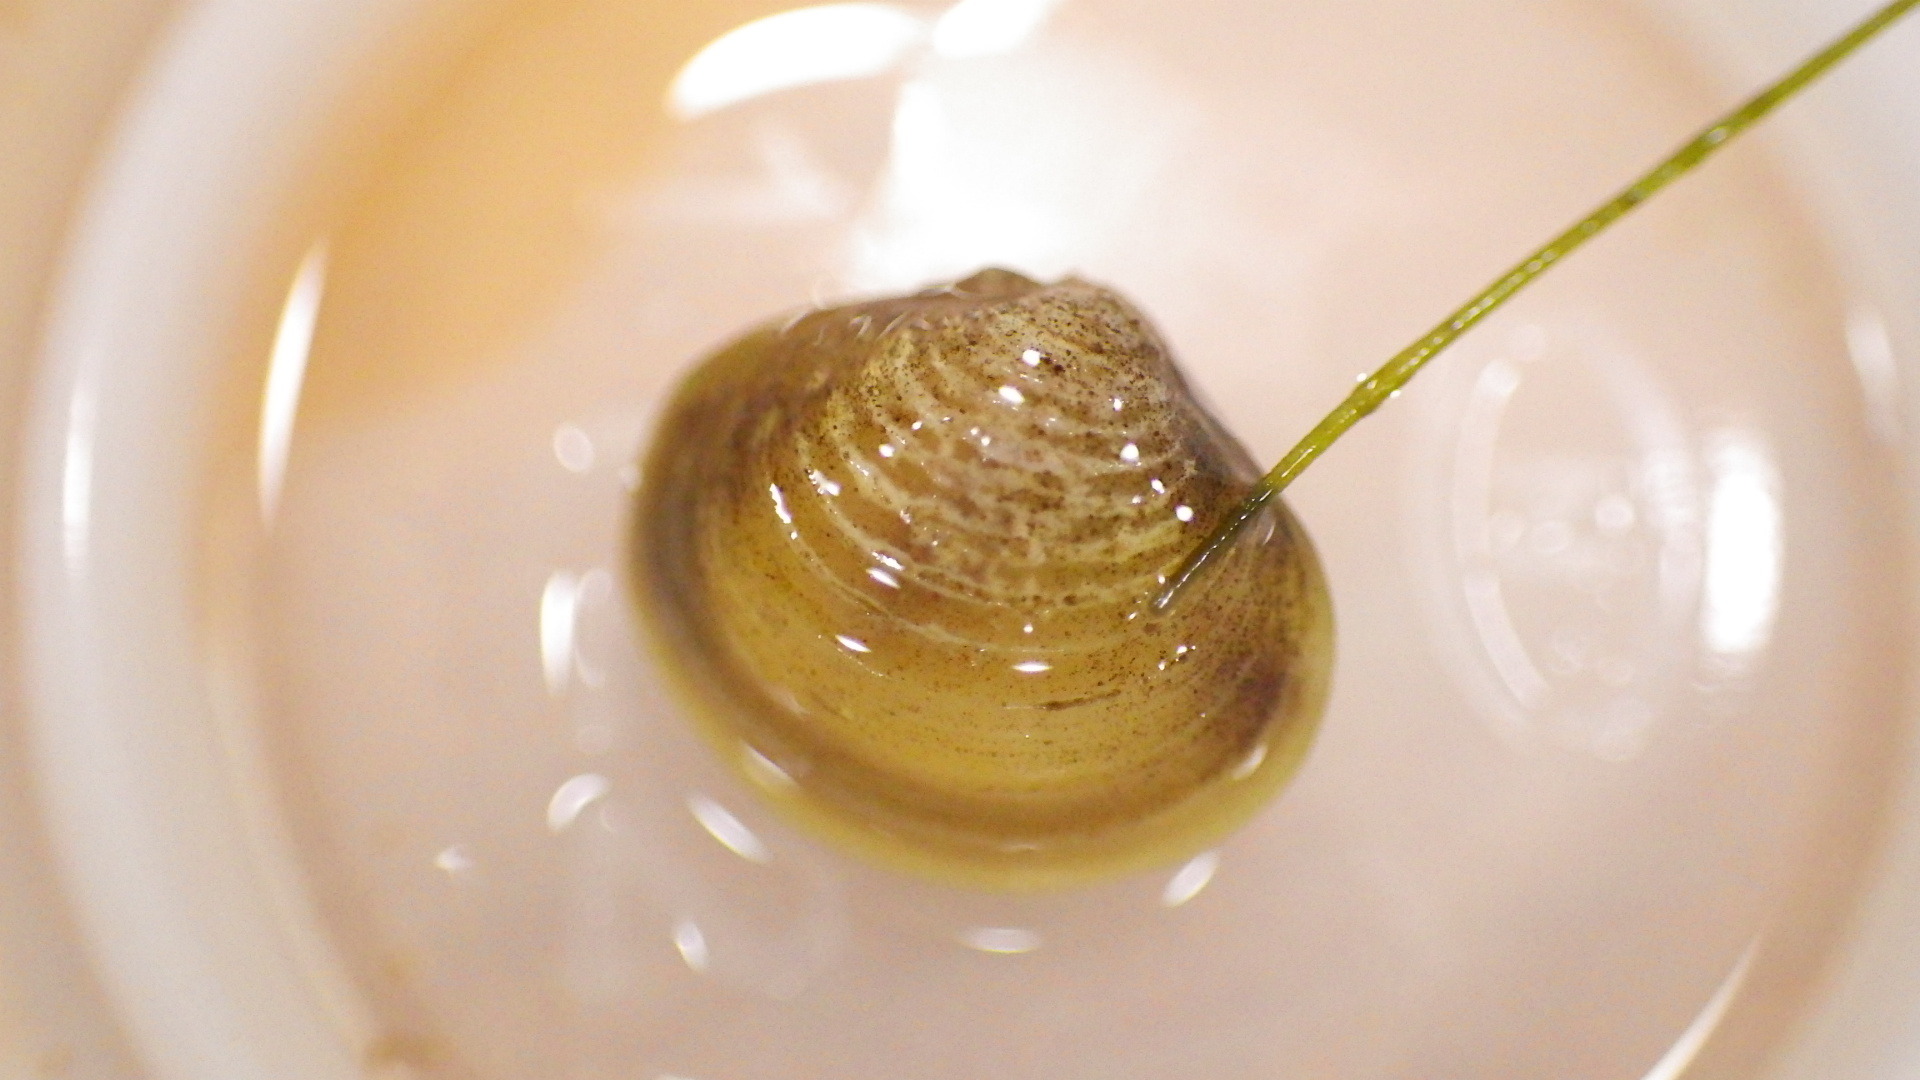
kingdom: Animalia
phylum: Mollusca
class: Bivalvia
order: Venerida
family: Cyrenidae
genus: Corbicula
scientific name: Corbicula fluminea
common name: Asian clam
